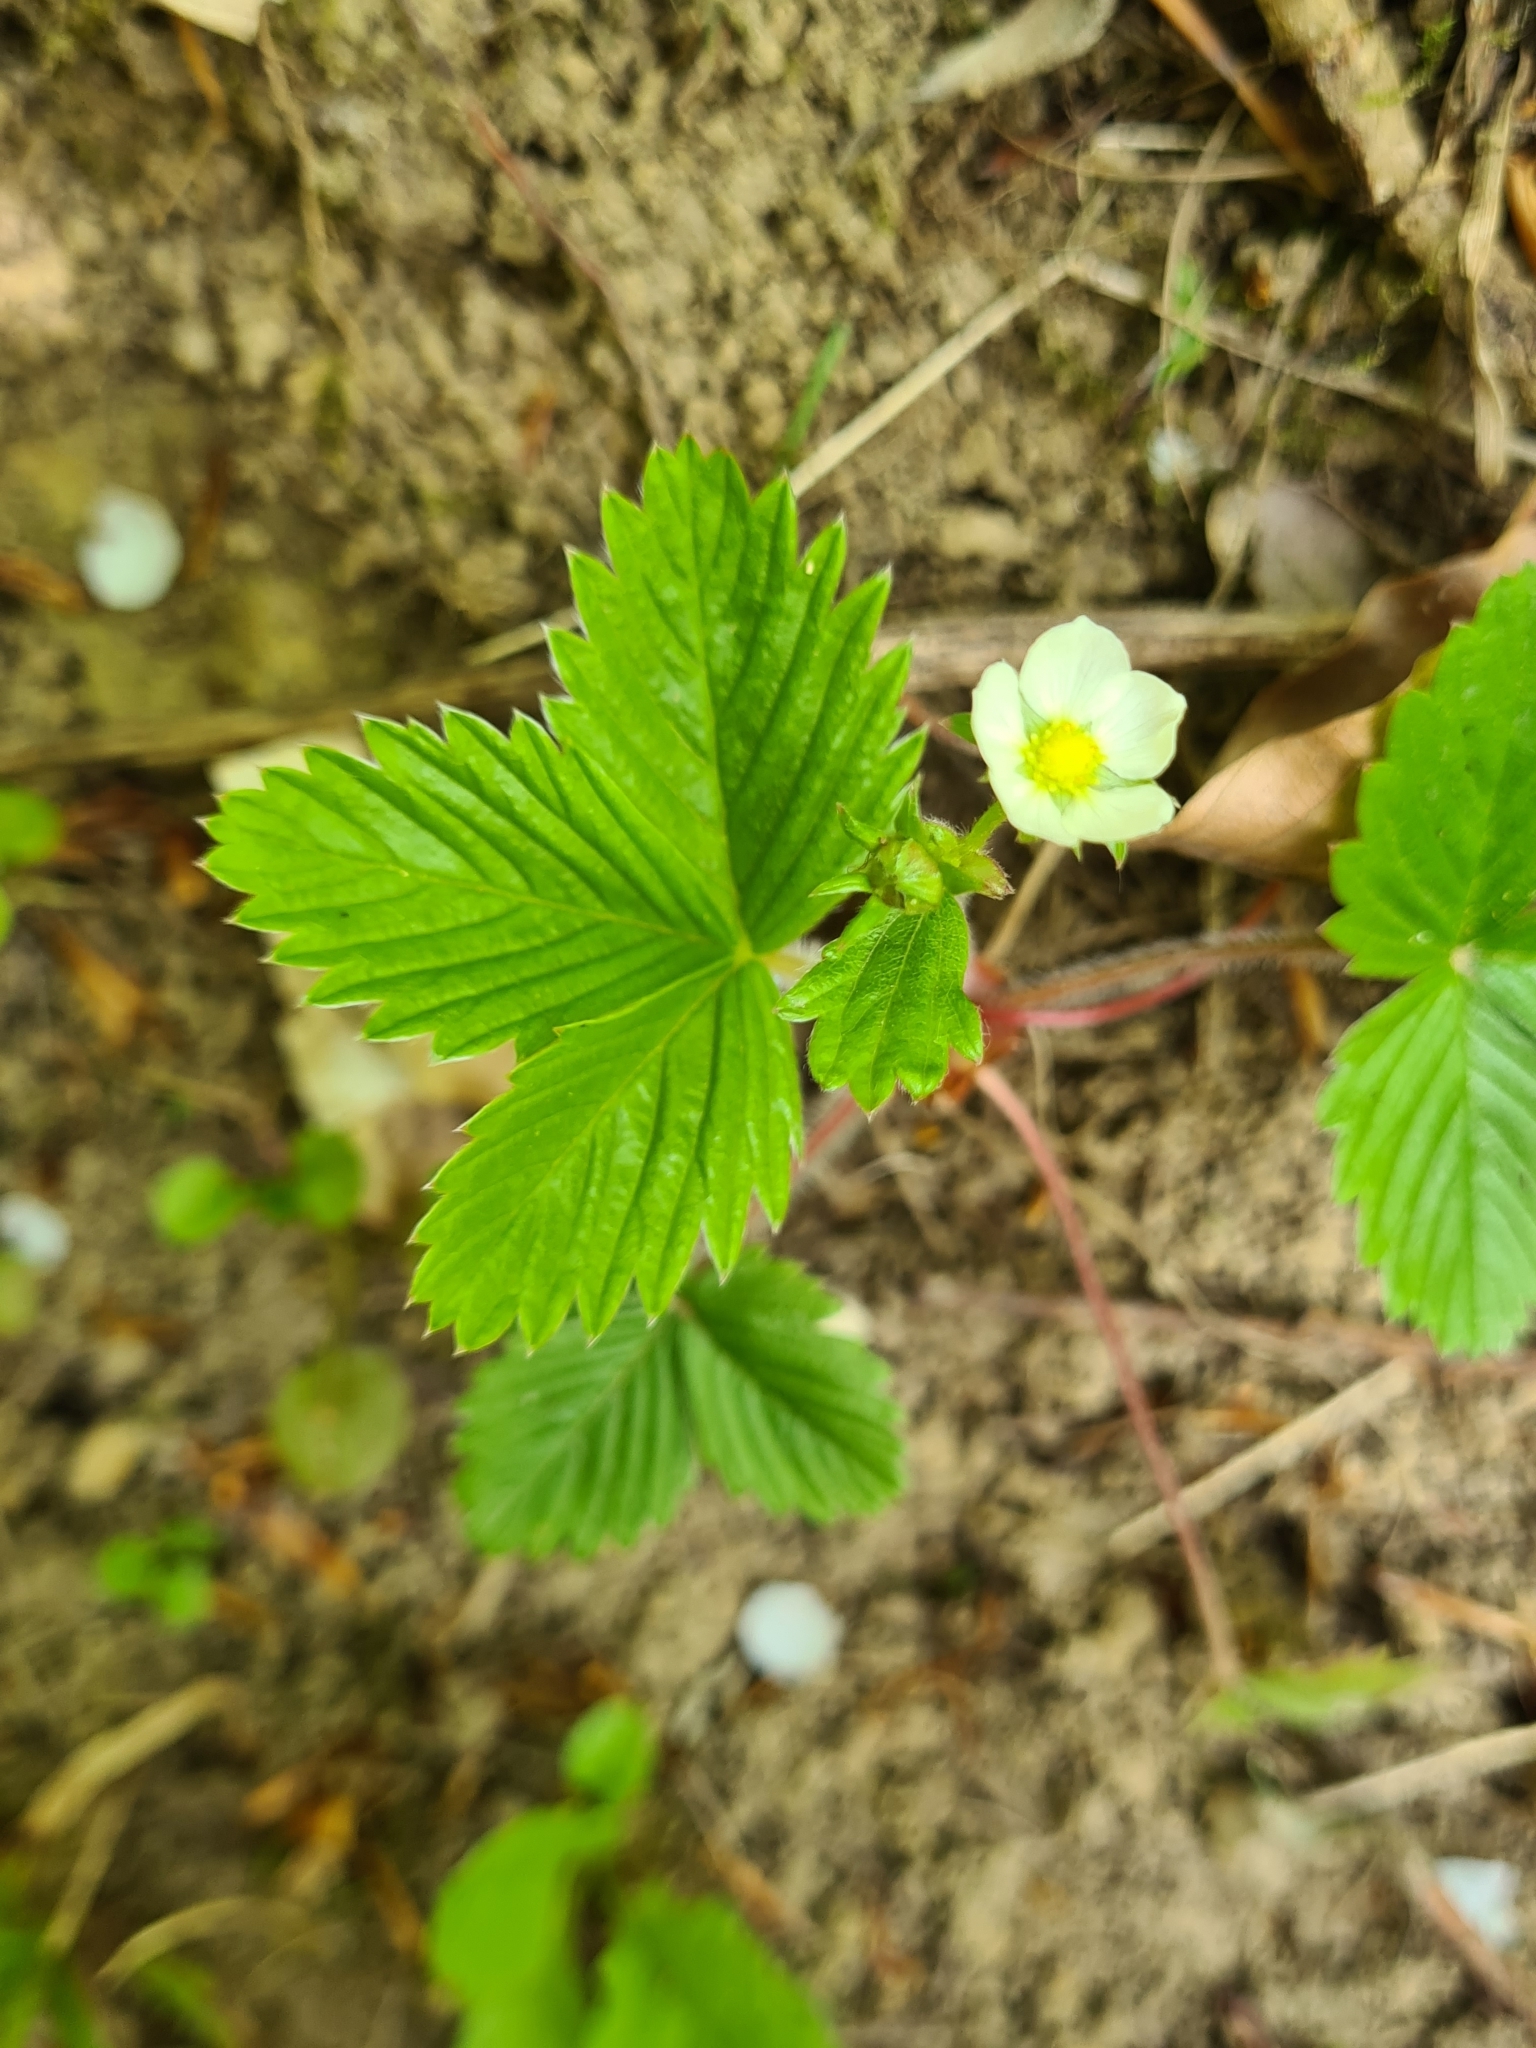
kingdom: Plantae
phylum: Tracheophyta
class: Magnoliopsida
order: Rosales
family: Rosaceae
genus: Fragaria
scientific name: Fragaria viridis
